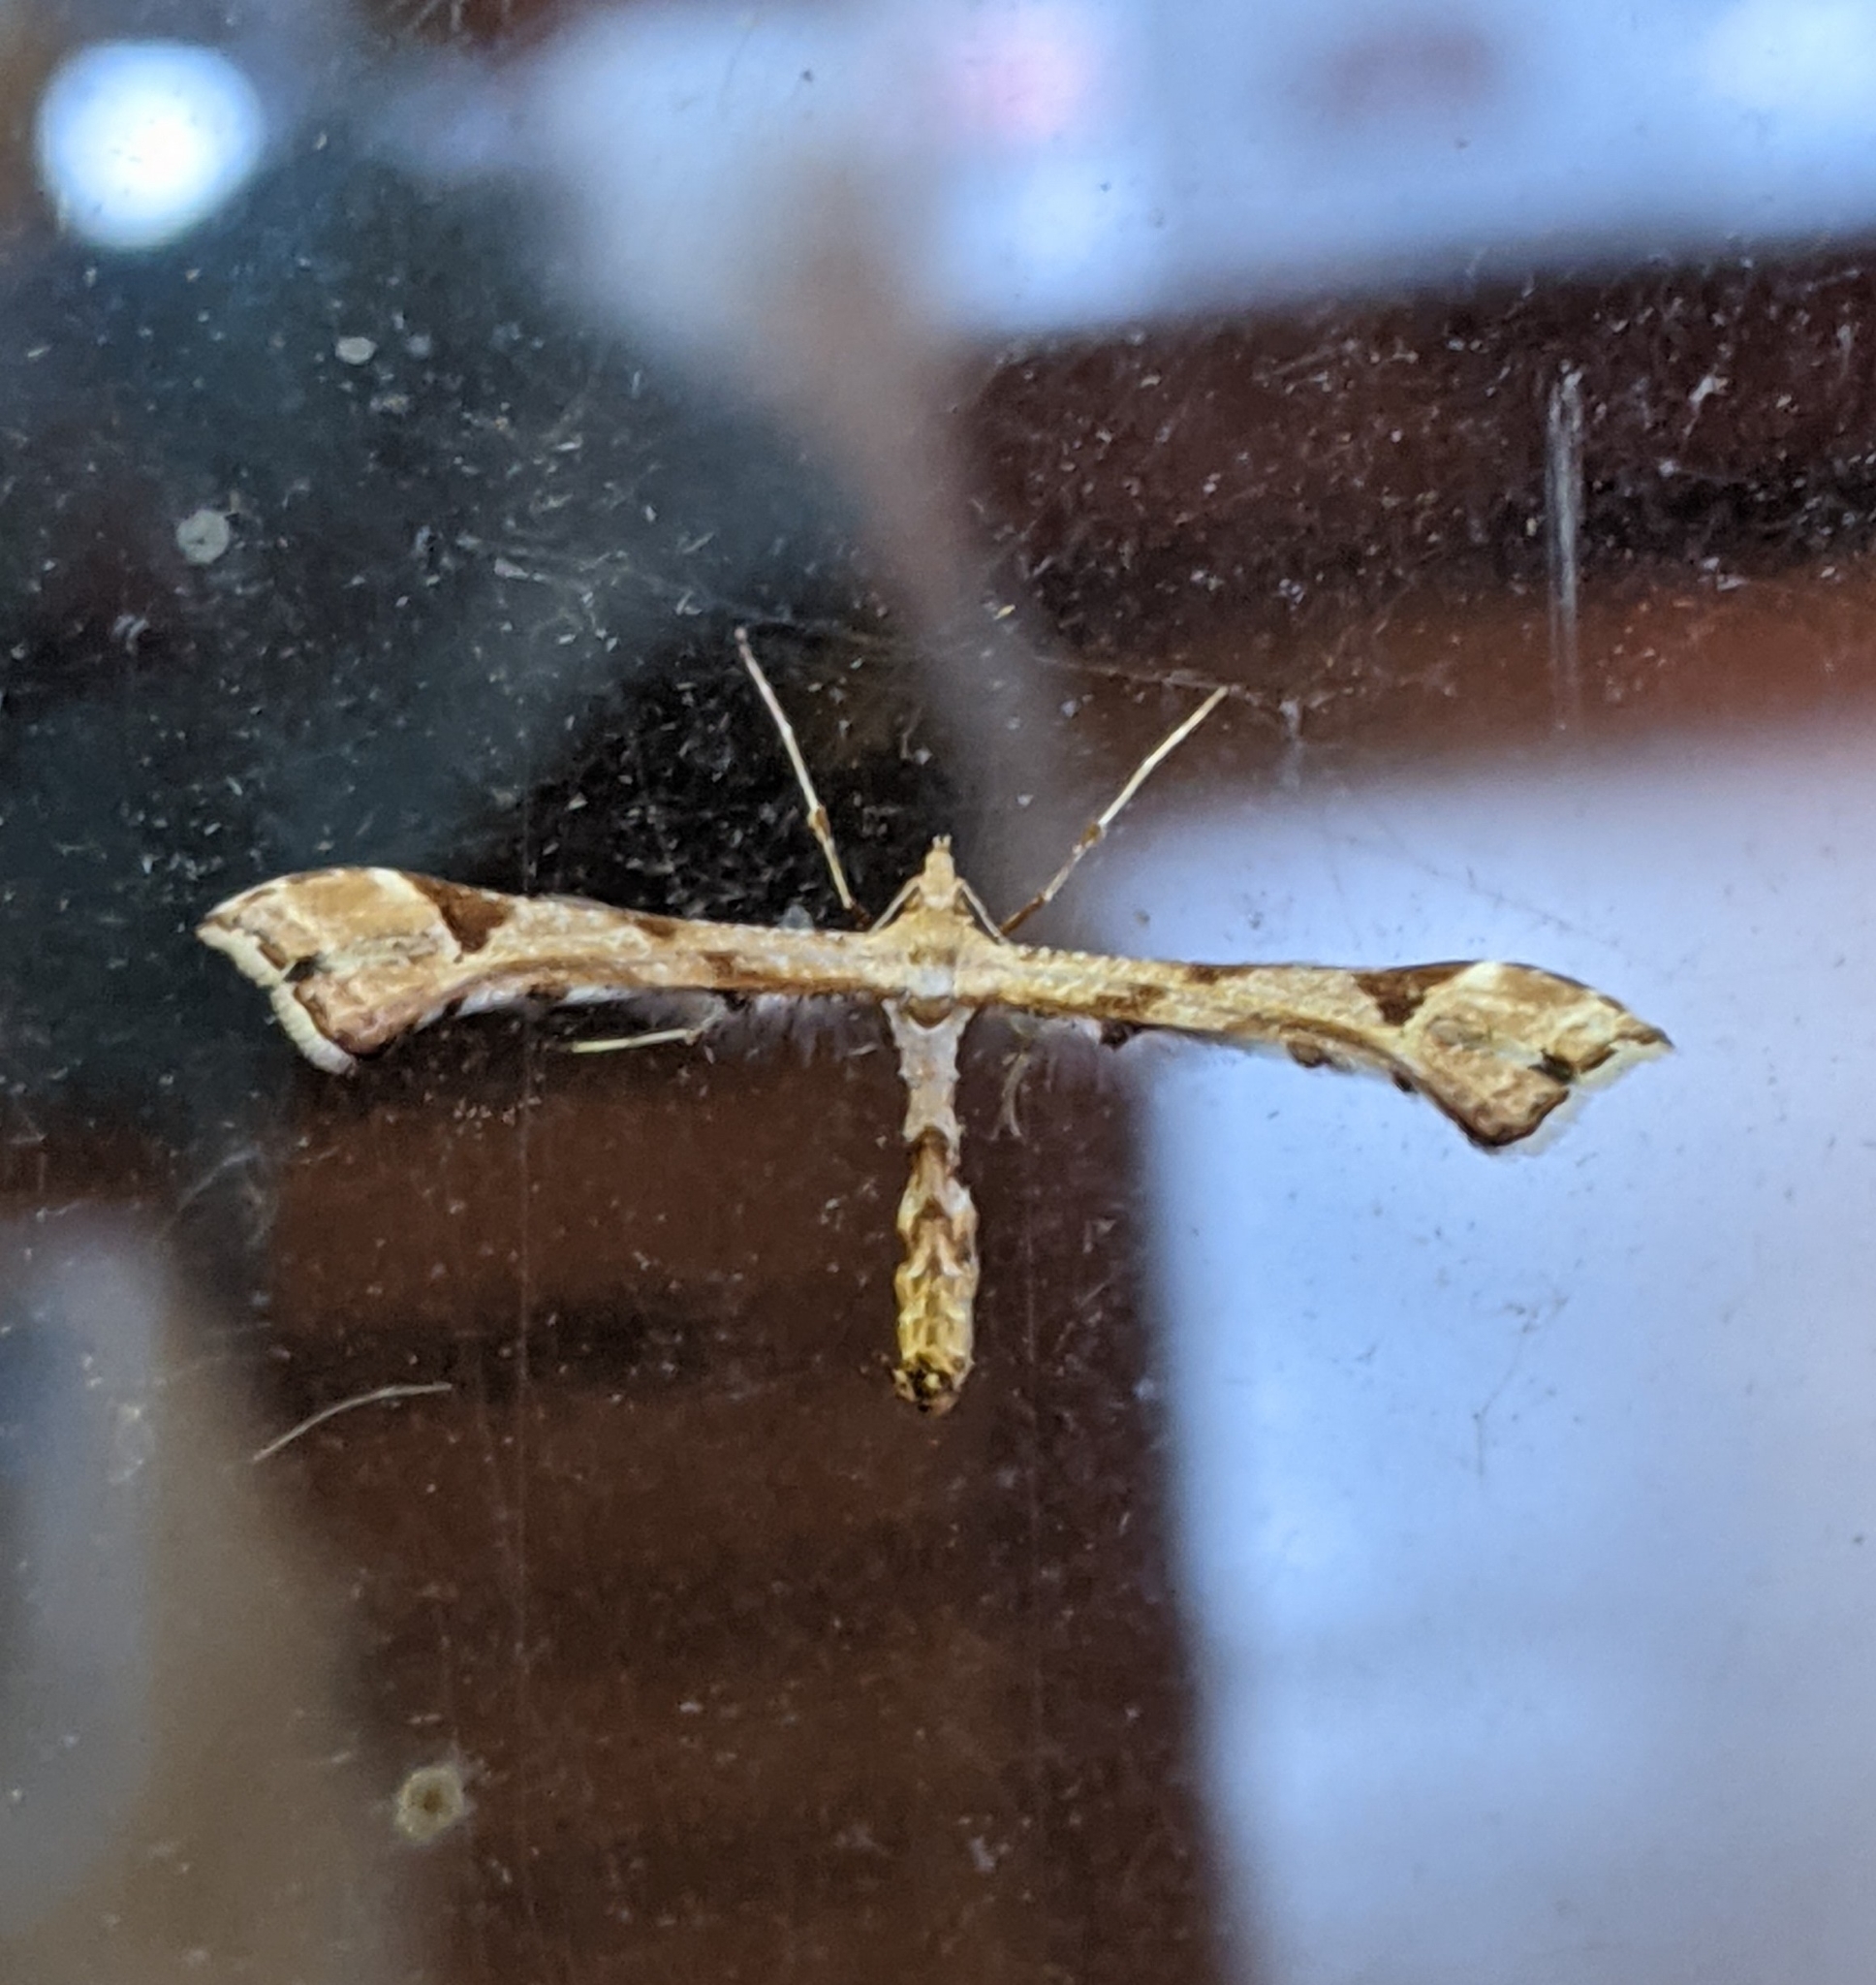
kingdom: Animalia
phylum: Arthropoda
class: Insecta
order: Lepidoptera
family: Pterophoridae
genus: Platyptilia
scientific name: Platyptilia carduidactylus
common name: Artichoke plume moth
